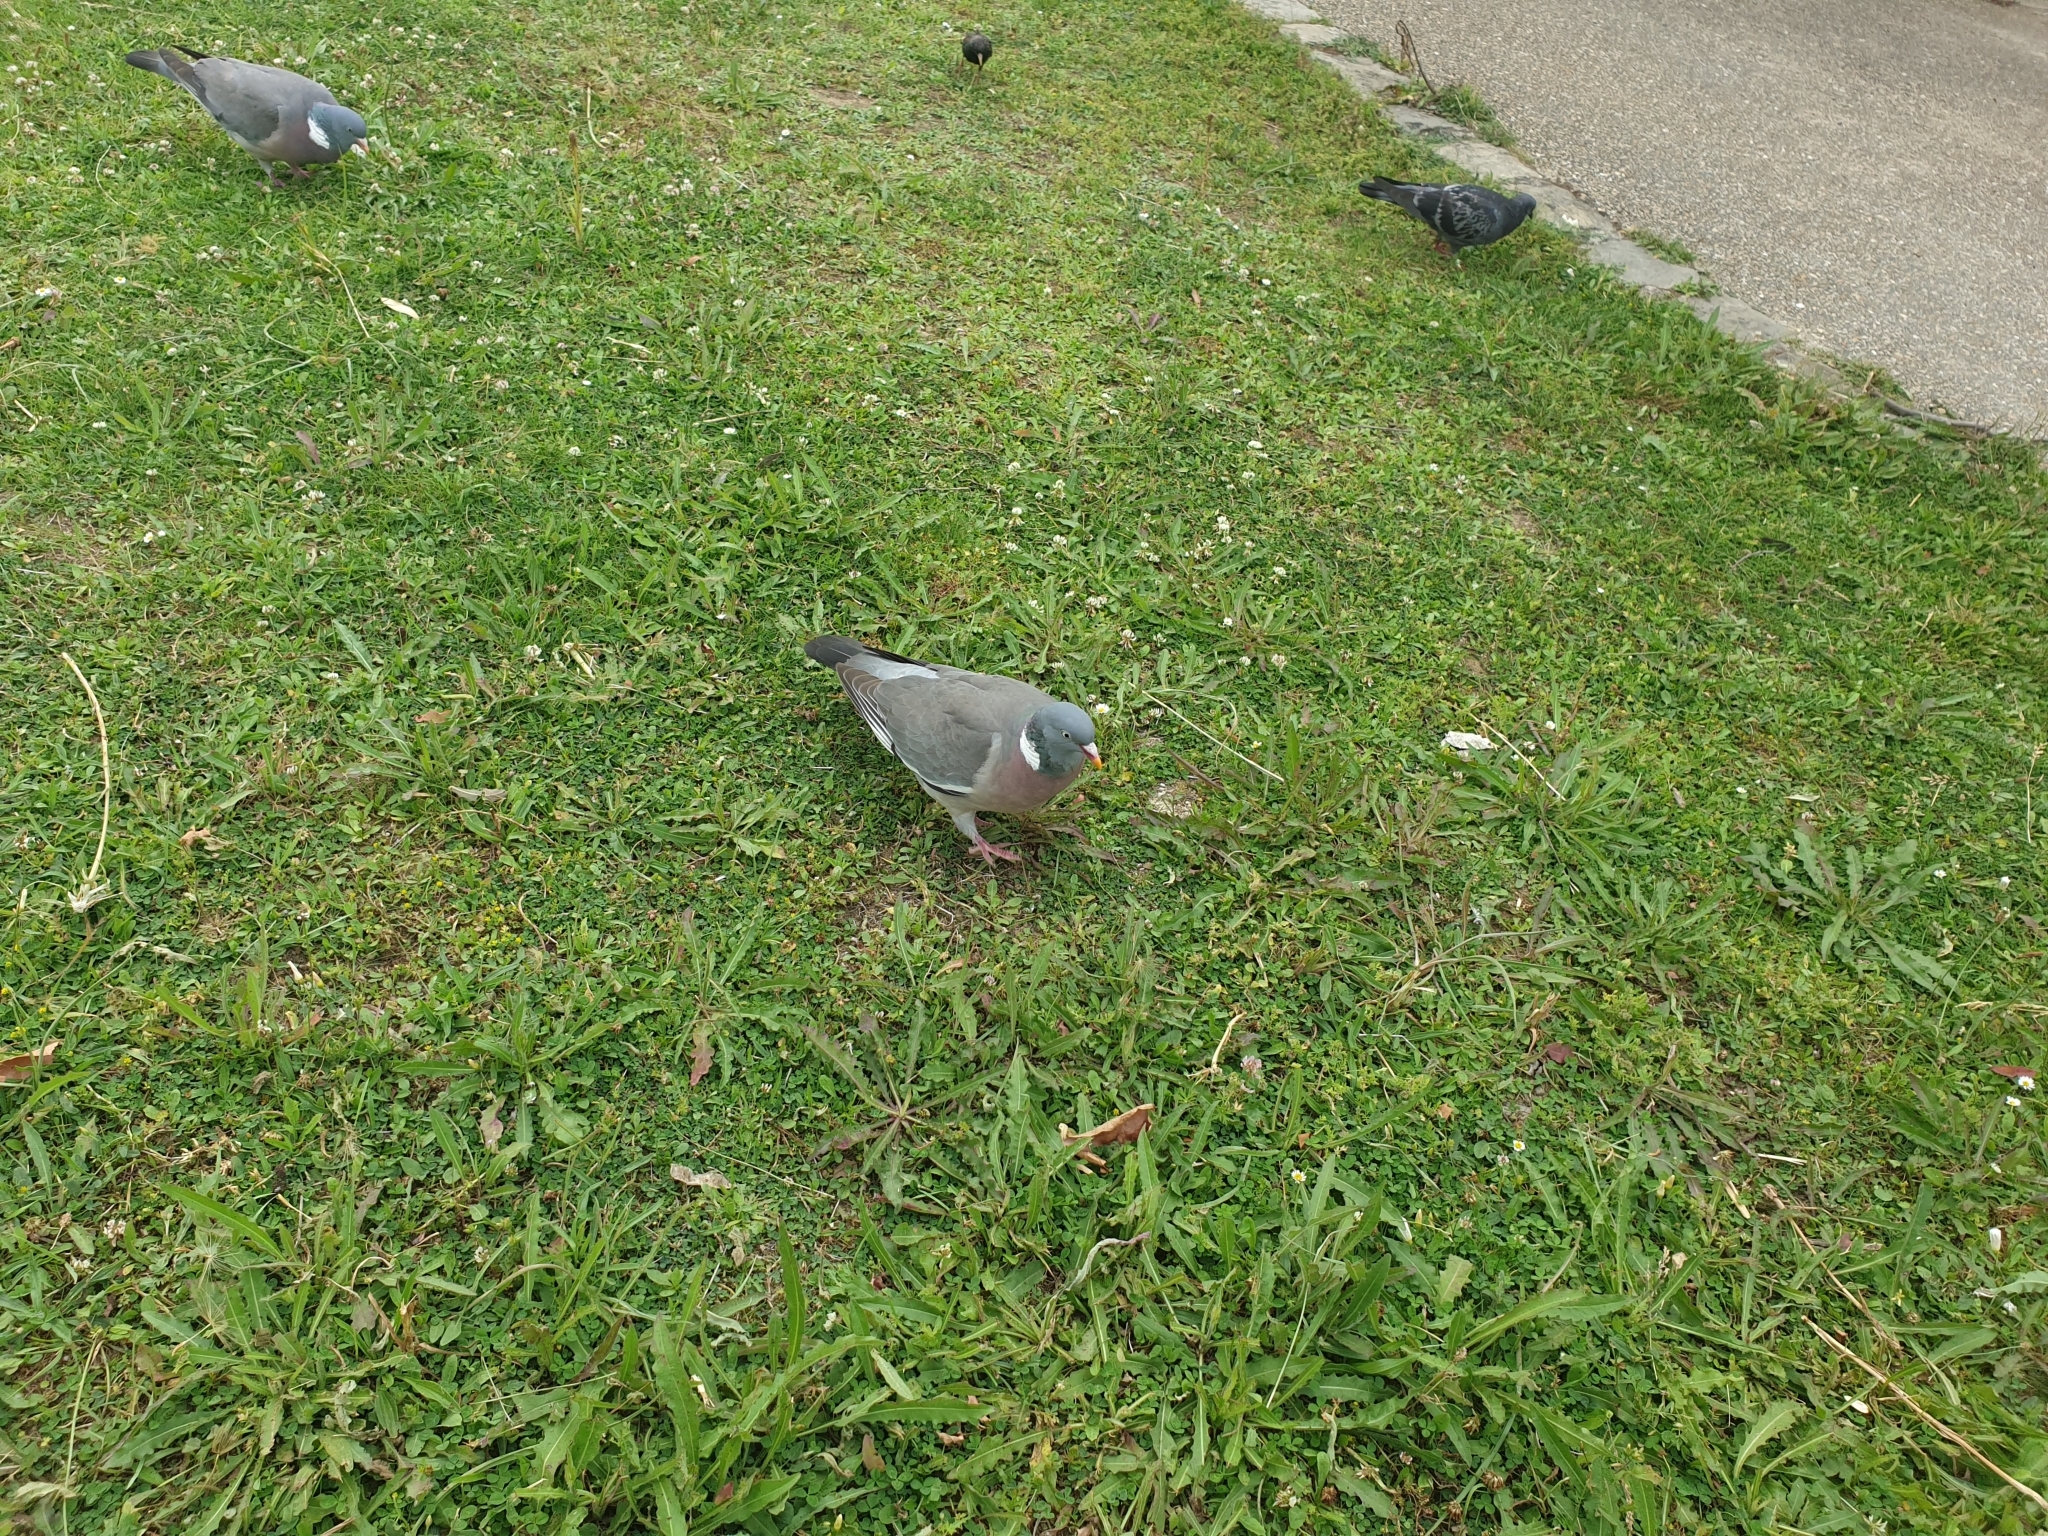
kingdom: Animalia
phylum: Chordata
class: Aves
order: Columbiformes
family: Columbidae
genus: Columba
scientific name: Columba palumbus
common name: Common wood pigeon
